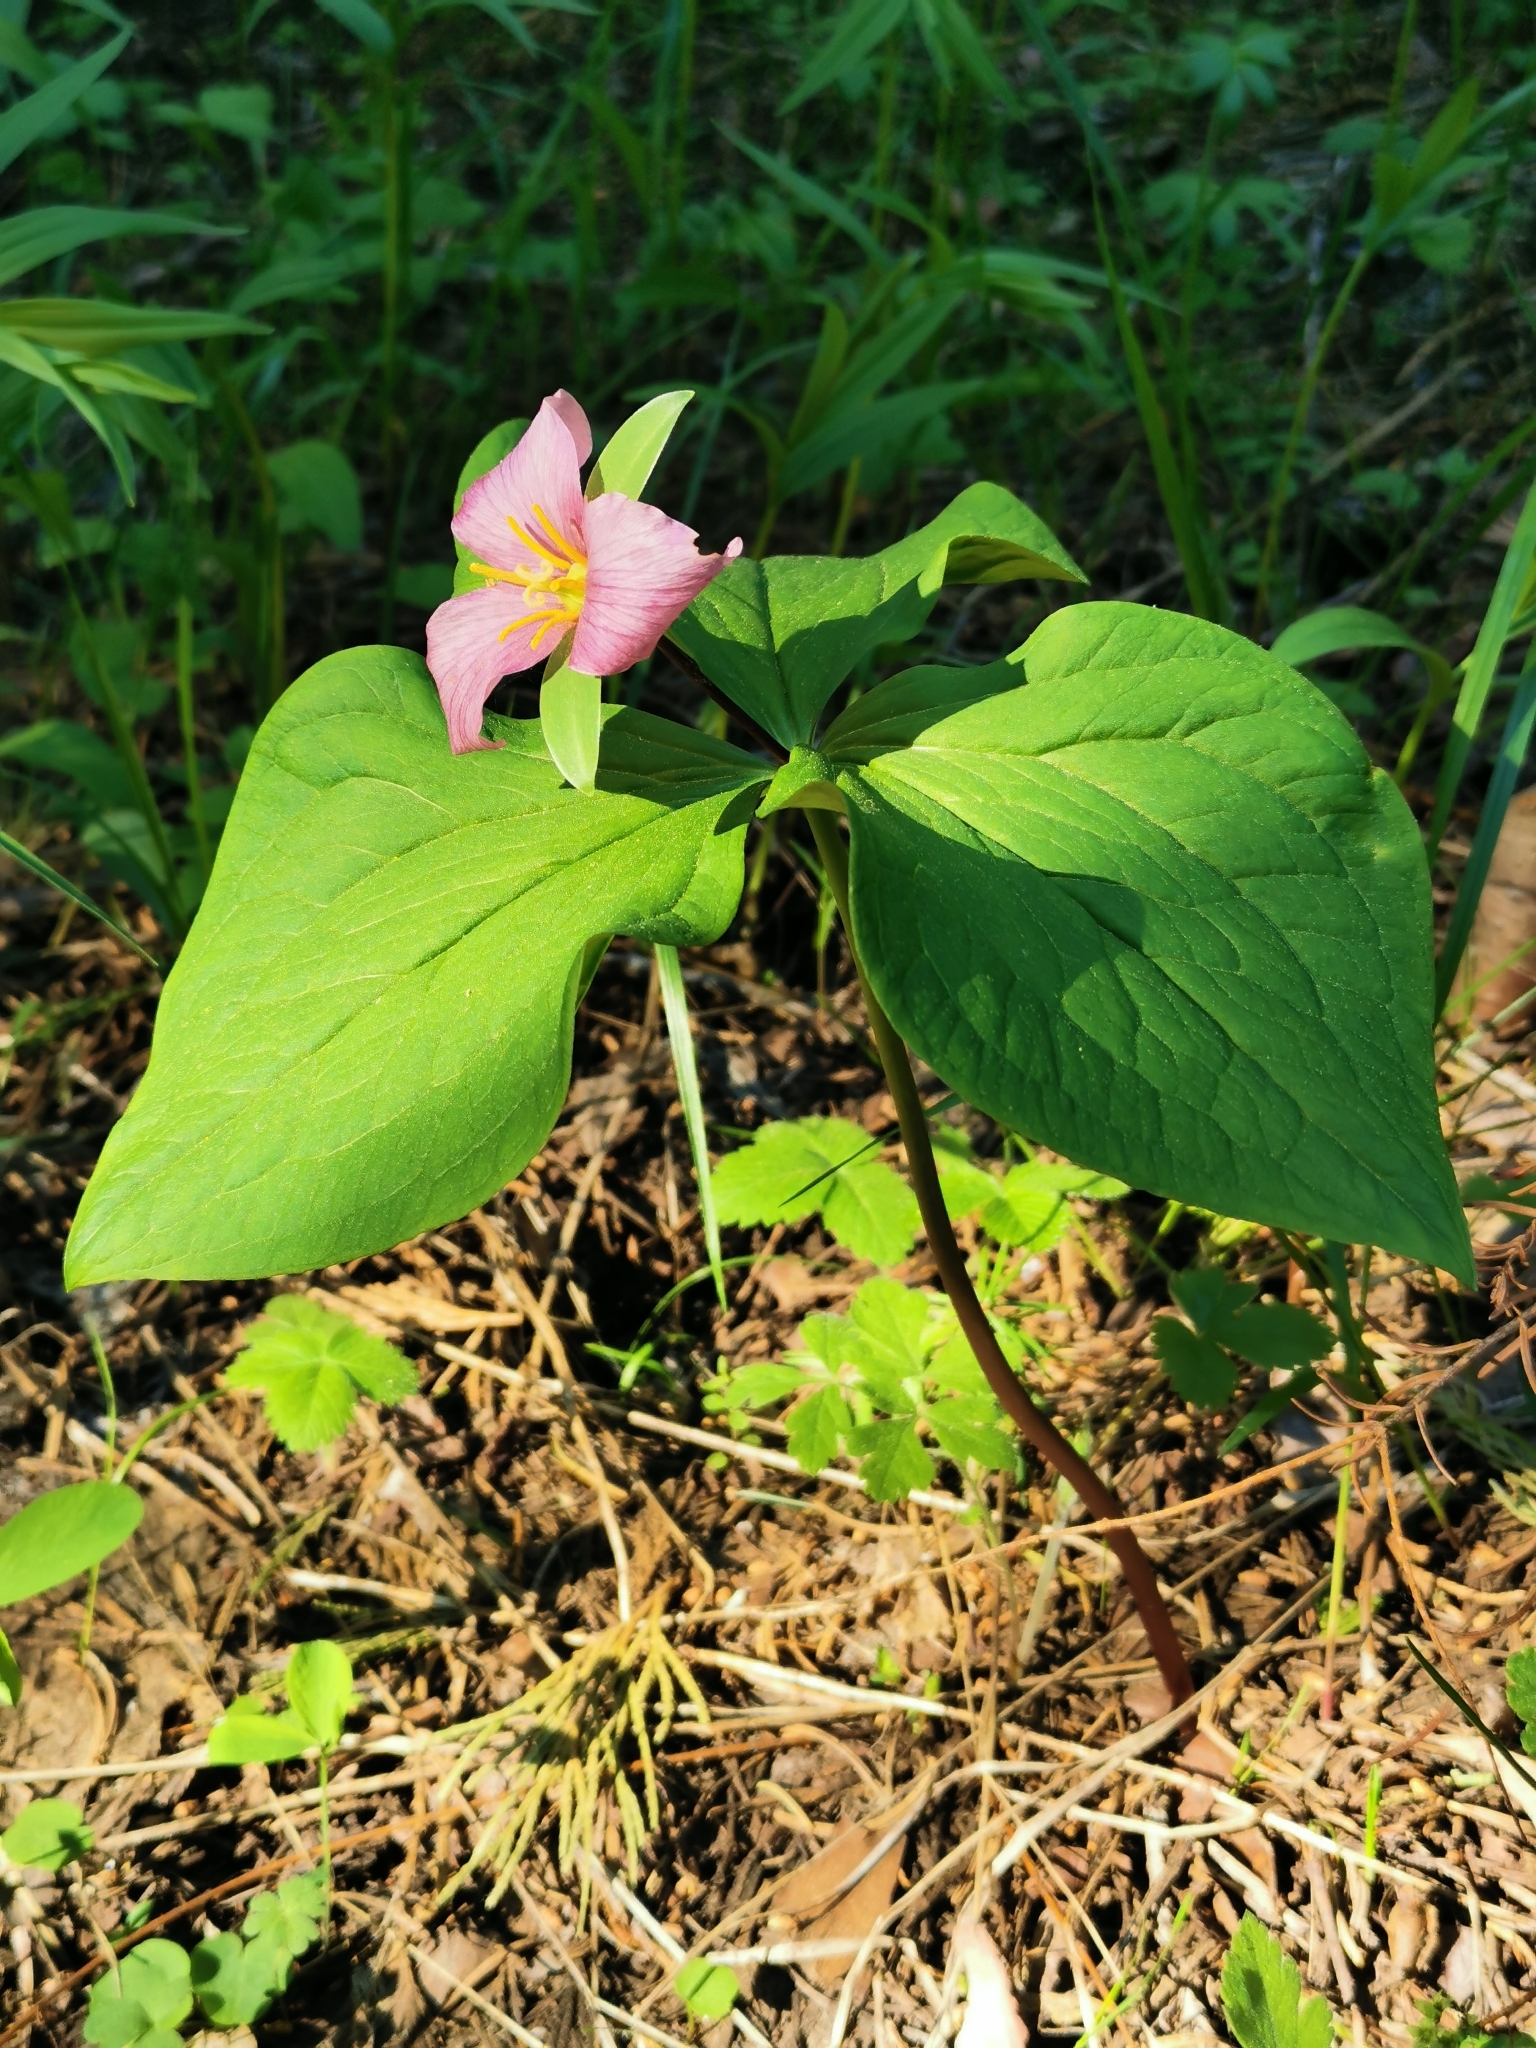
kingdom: Plantae
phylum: Tracheophyta
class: Liliopsida
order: Liliales
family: Melanthiaceae
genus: Trillium
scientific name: Trillium ovatum
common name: Pacific trillium
